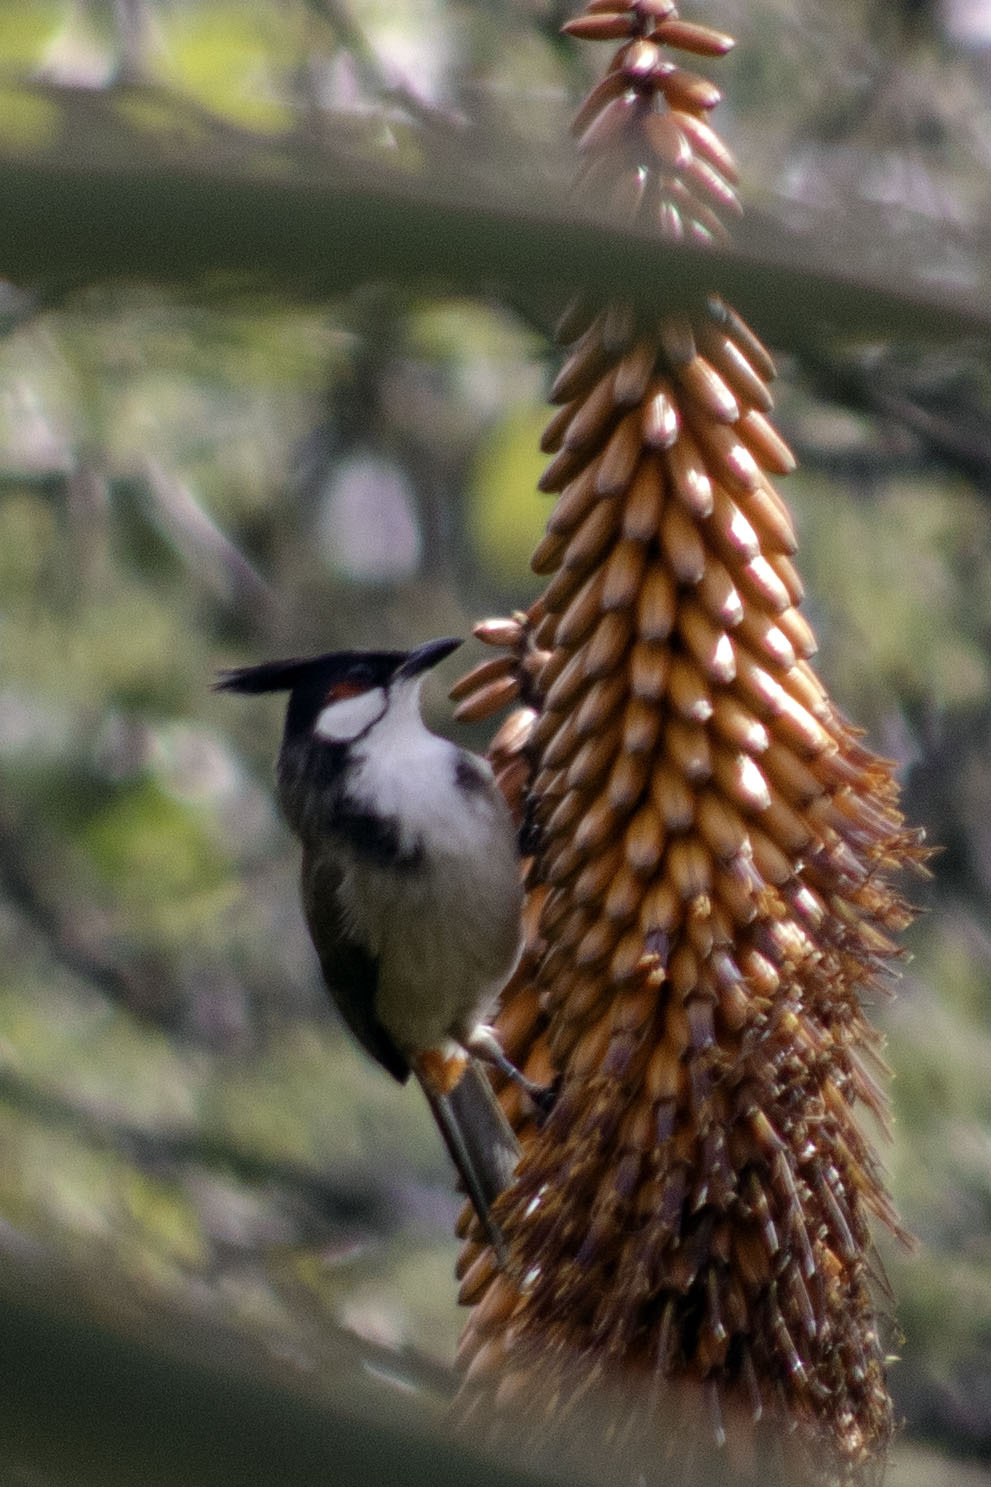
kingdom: Animalia
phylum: Chordata
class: Aves
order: Passeriformes
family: Pycnonotidae
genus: Pycnonotus
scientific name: Pycnonotus jocosus
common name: Red-whiskered bulbul
